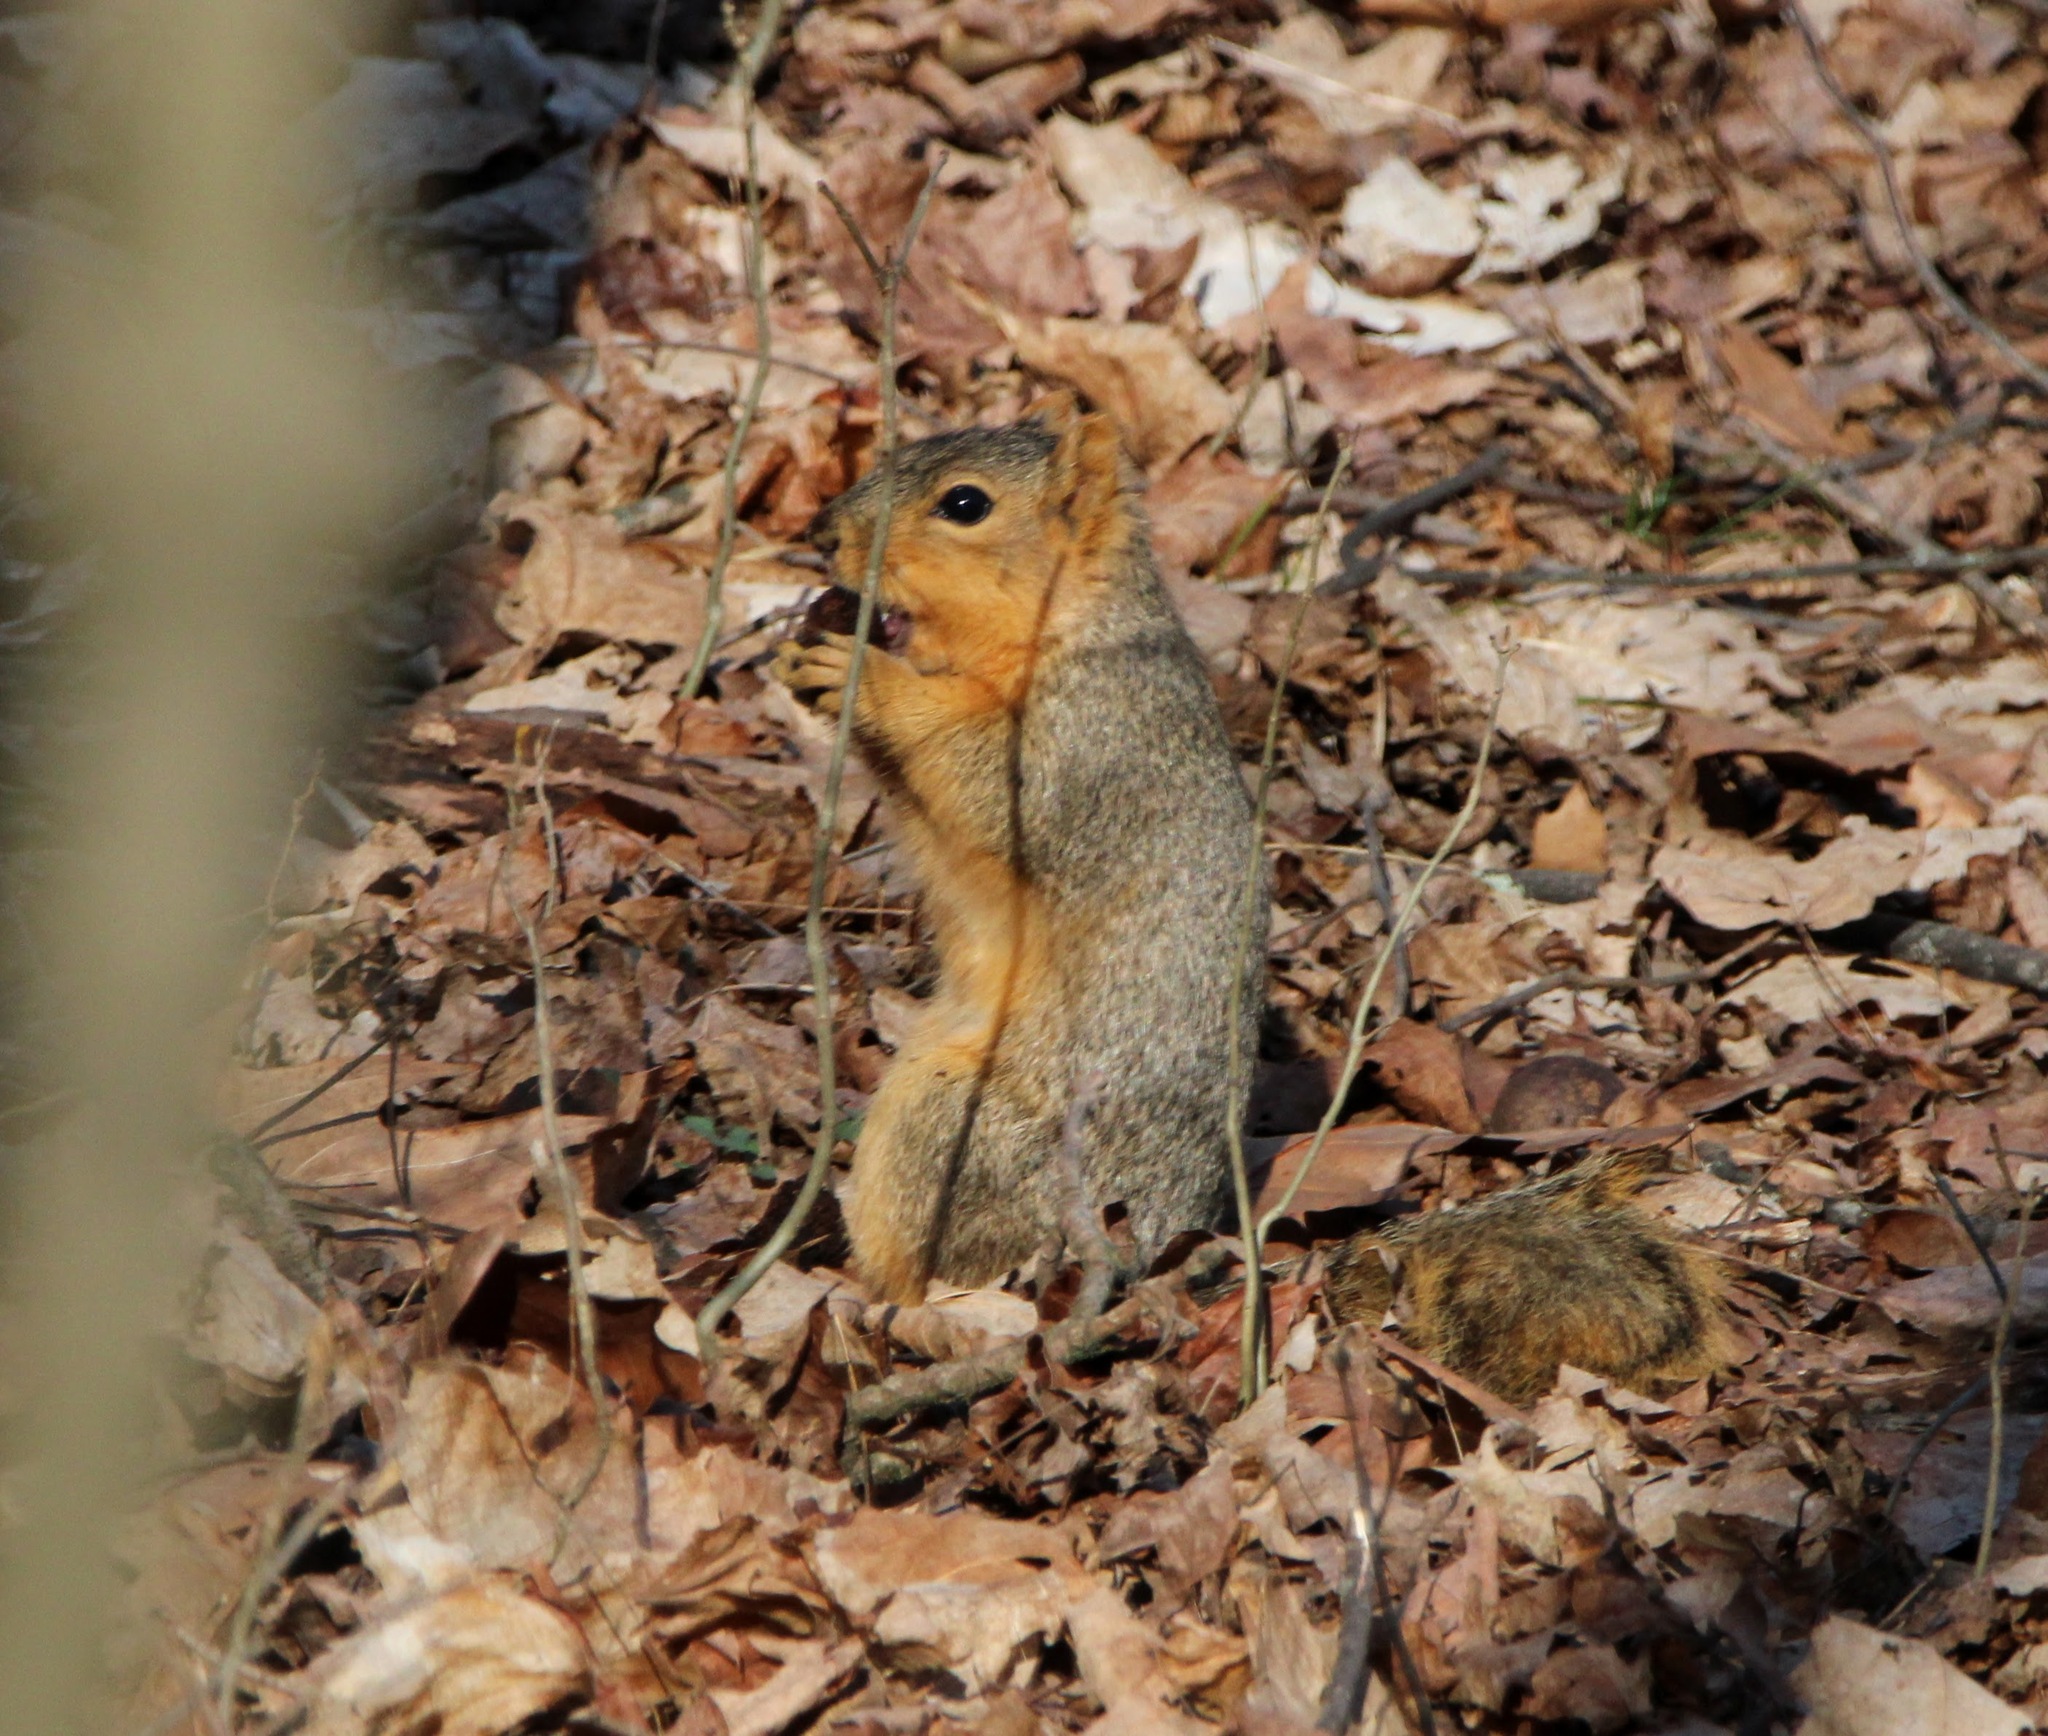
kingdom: Animalia
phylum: Chordata
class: Mammalia
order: Rodentia
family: Sciuridae
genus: Sciurus
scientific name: Sciurus niger
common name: Fox squirrel
